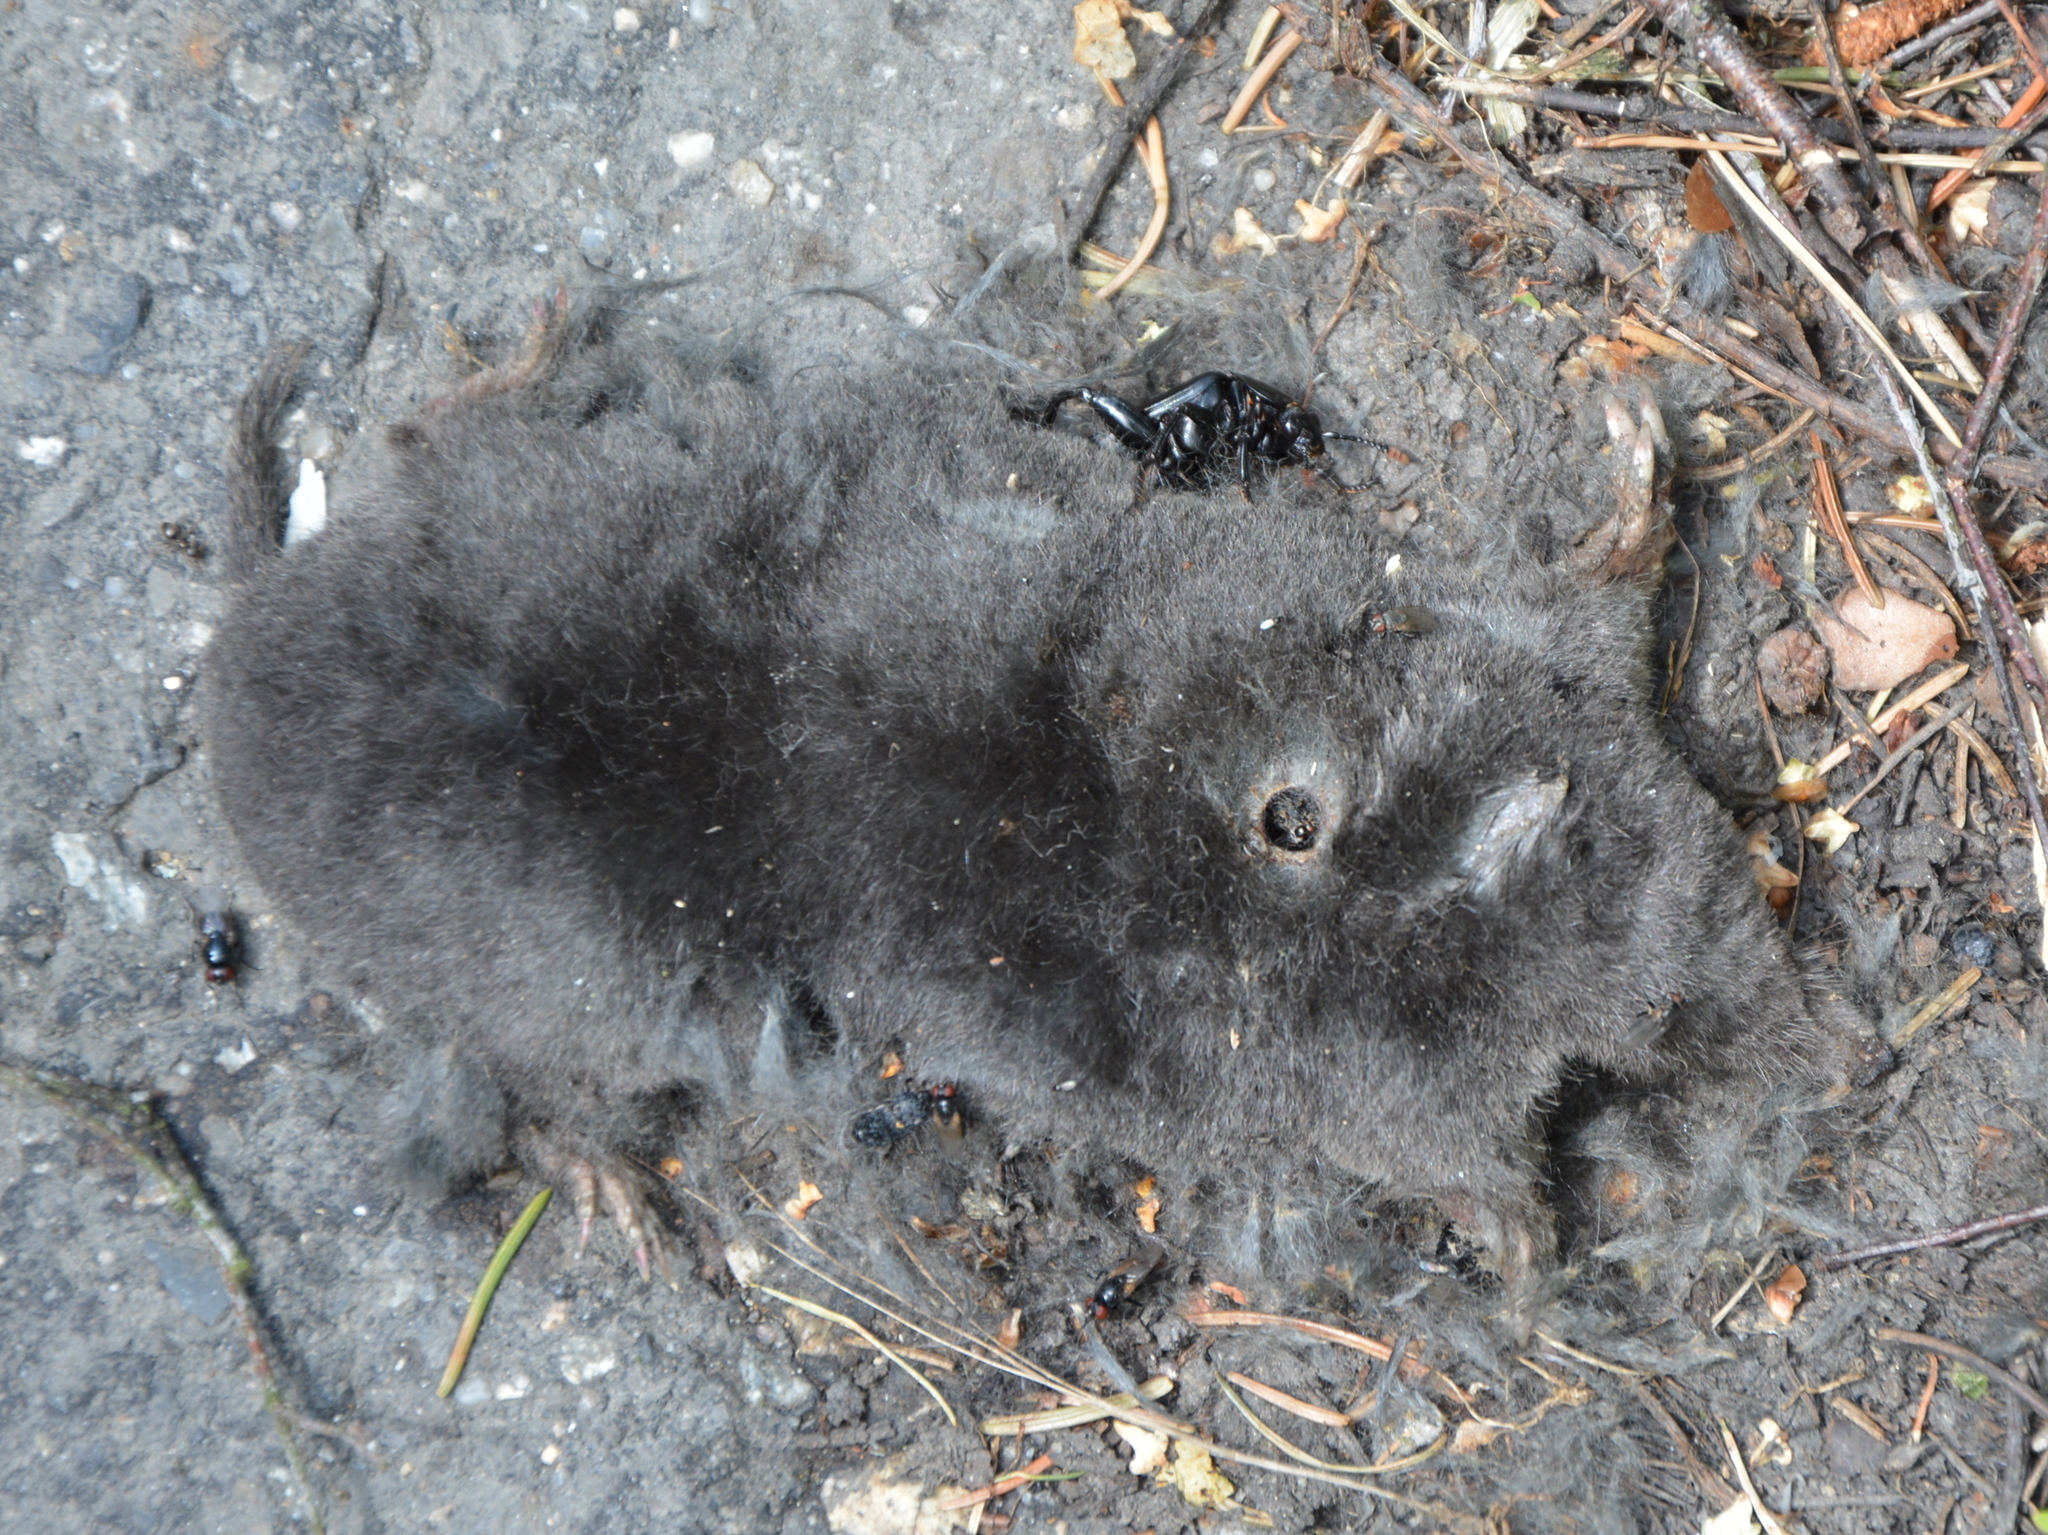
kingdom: Animalia
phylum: Chordata
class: Mammalia
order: Soricomorpha
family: Talpidae
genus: Talpa
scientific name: Talpa europaea
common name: European mole
